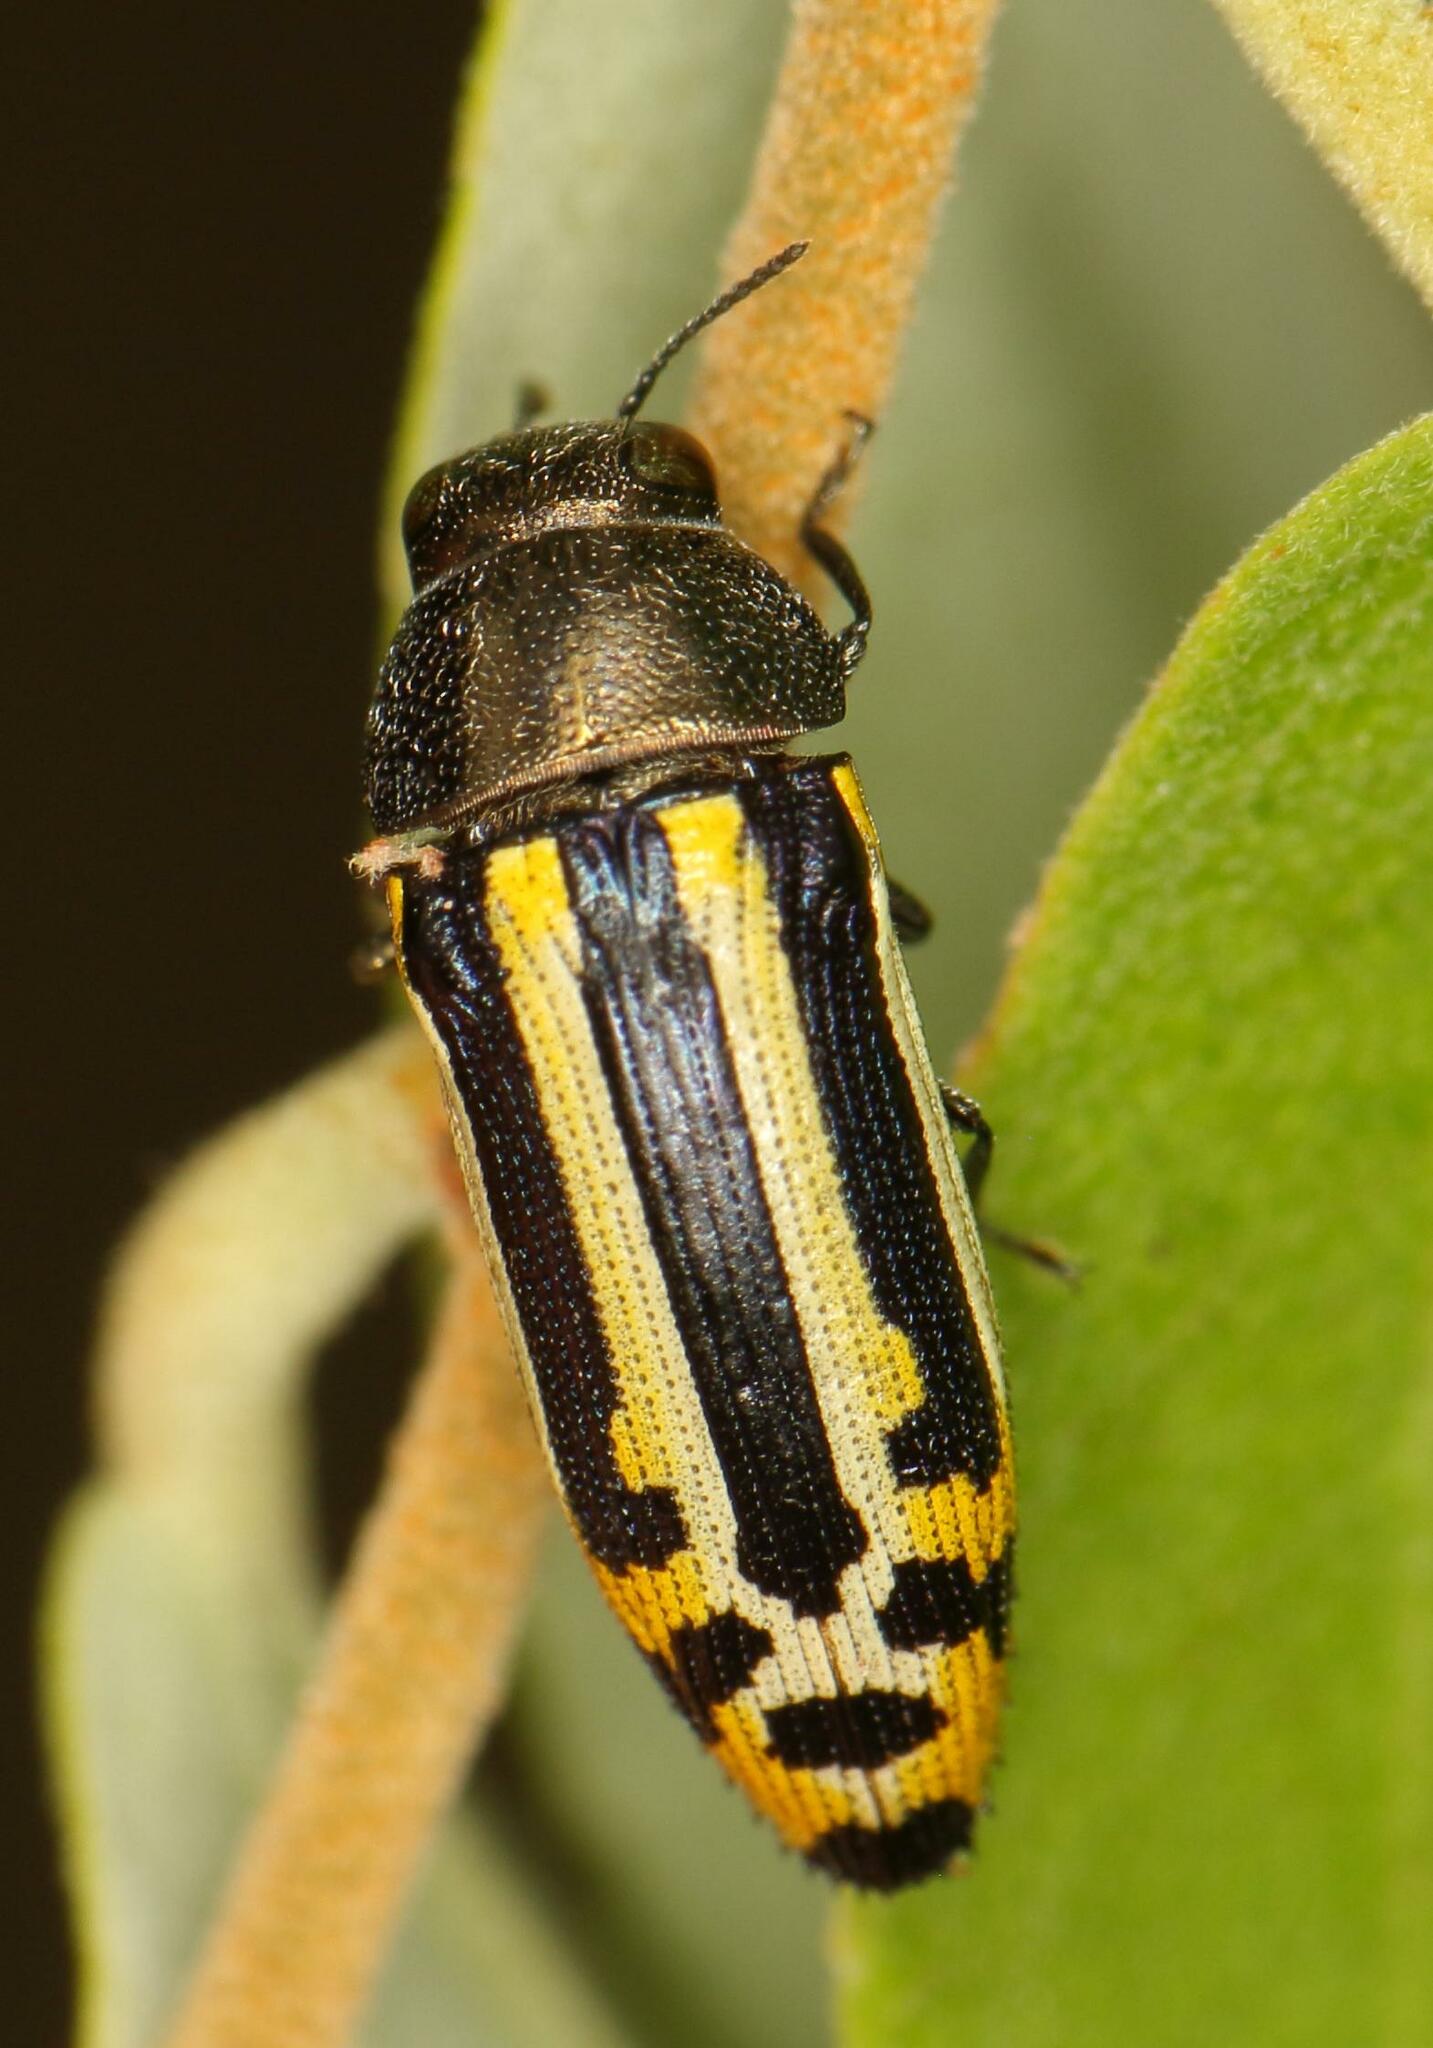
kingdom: Animalia
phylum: Arthropoda
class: Insecta
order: Coleoptera
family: Buprestidae
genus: Acmaeodera
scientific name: Acmaeodera grata
